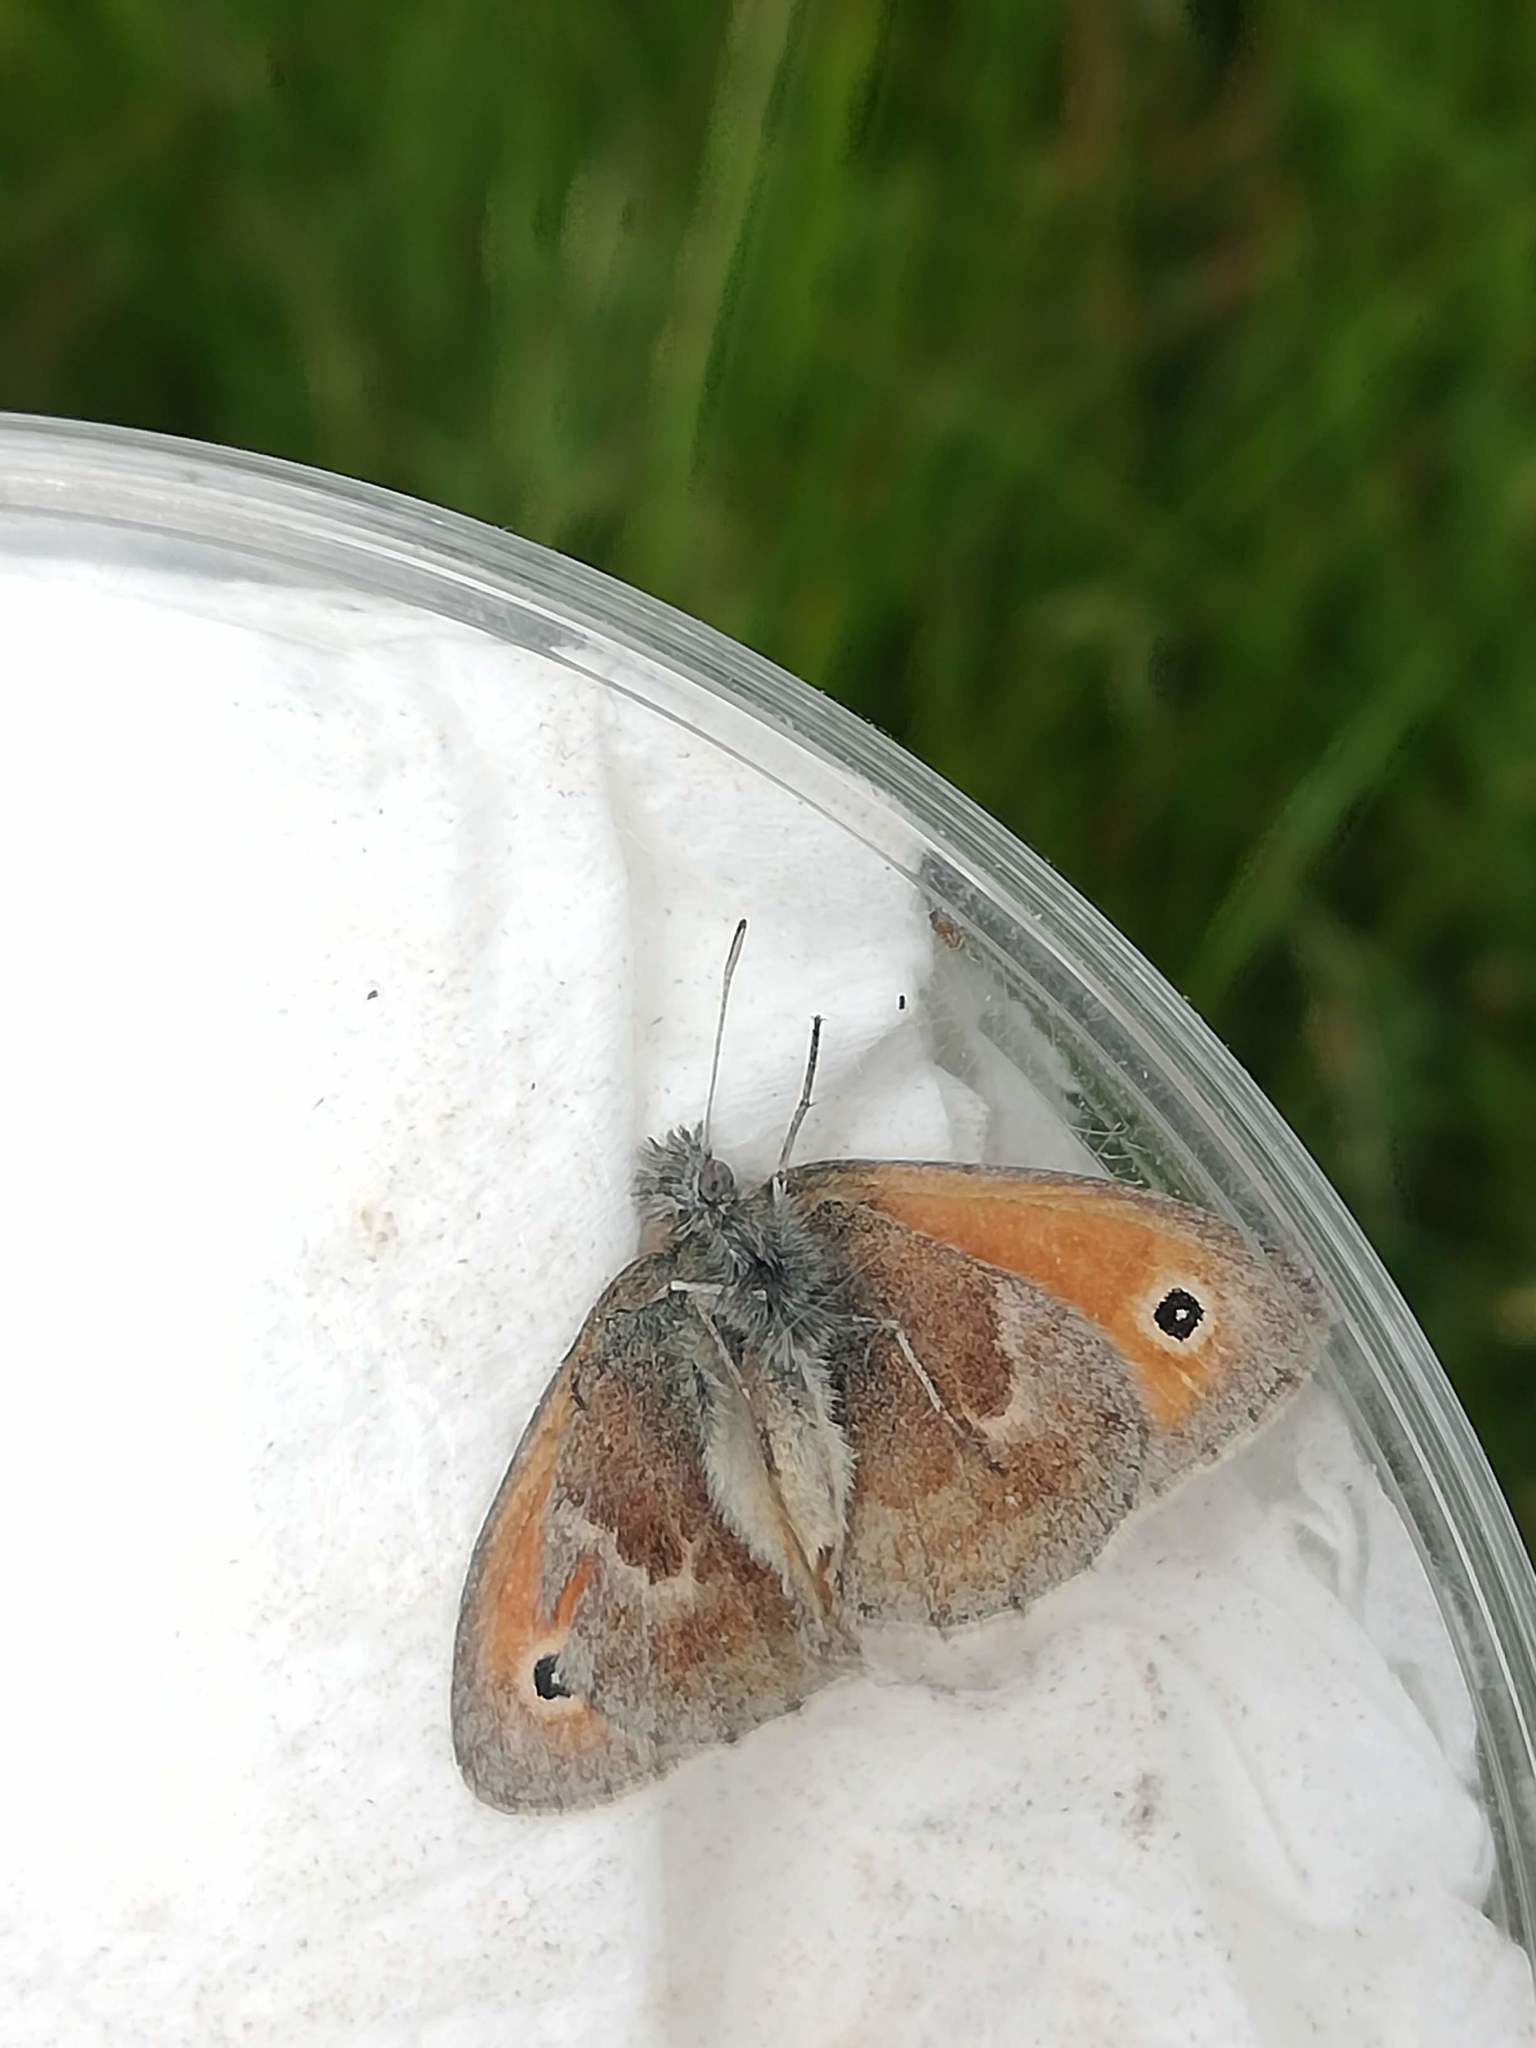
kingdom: Animalia
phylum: Arthropoda
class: Insecta
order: Lepidoptera
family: Nymphalidae
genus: Coenonympha
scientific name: Coenonympha pamphilus
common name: Small heath
